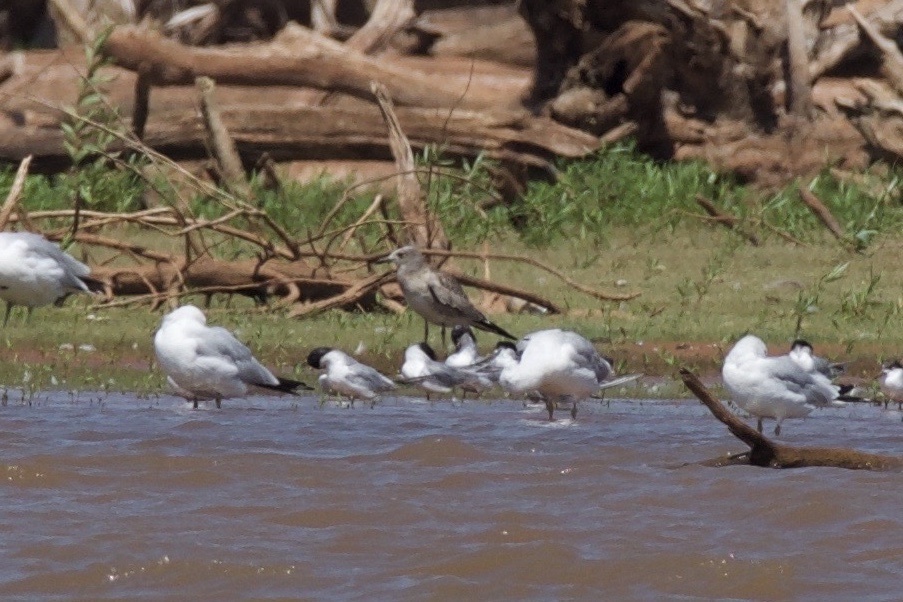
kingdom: Animalia
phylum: Chordata
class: Aves
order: Charadriiformes
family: Laridae
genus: Leucophaeus
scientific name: Leucophaeus atricilla
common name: Laughing gull
